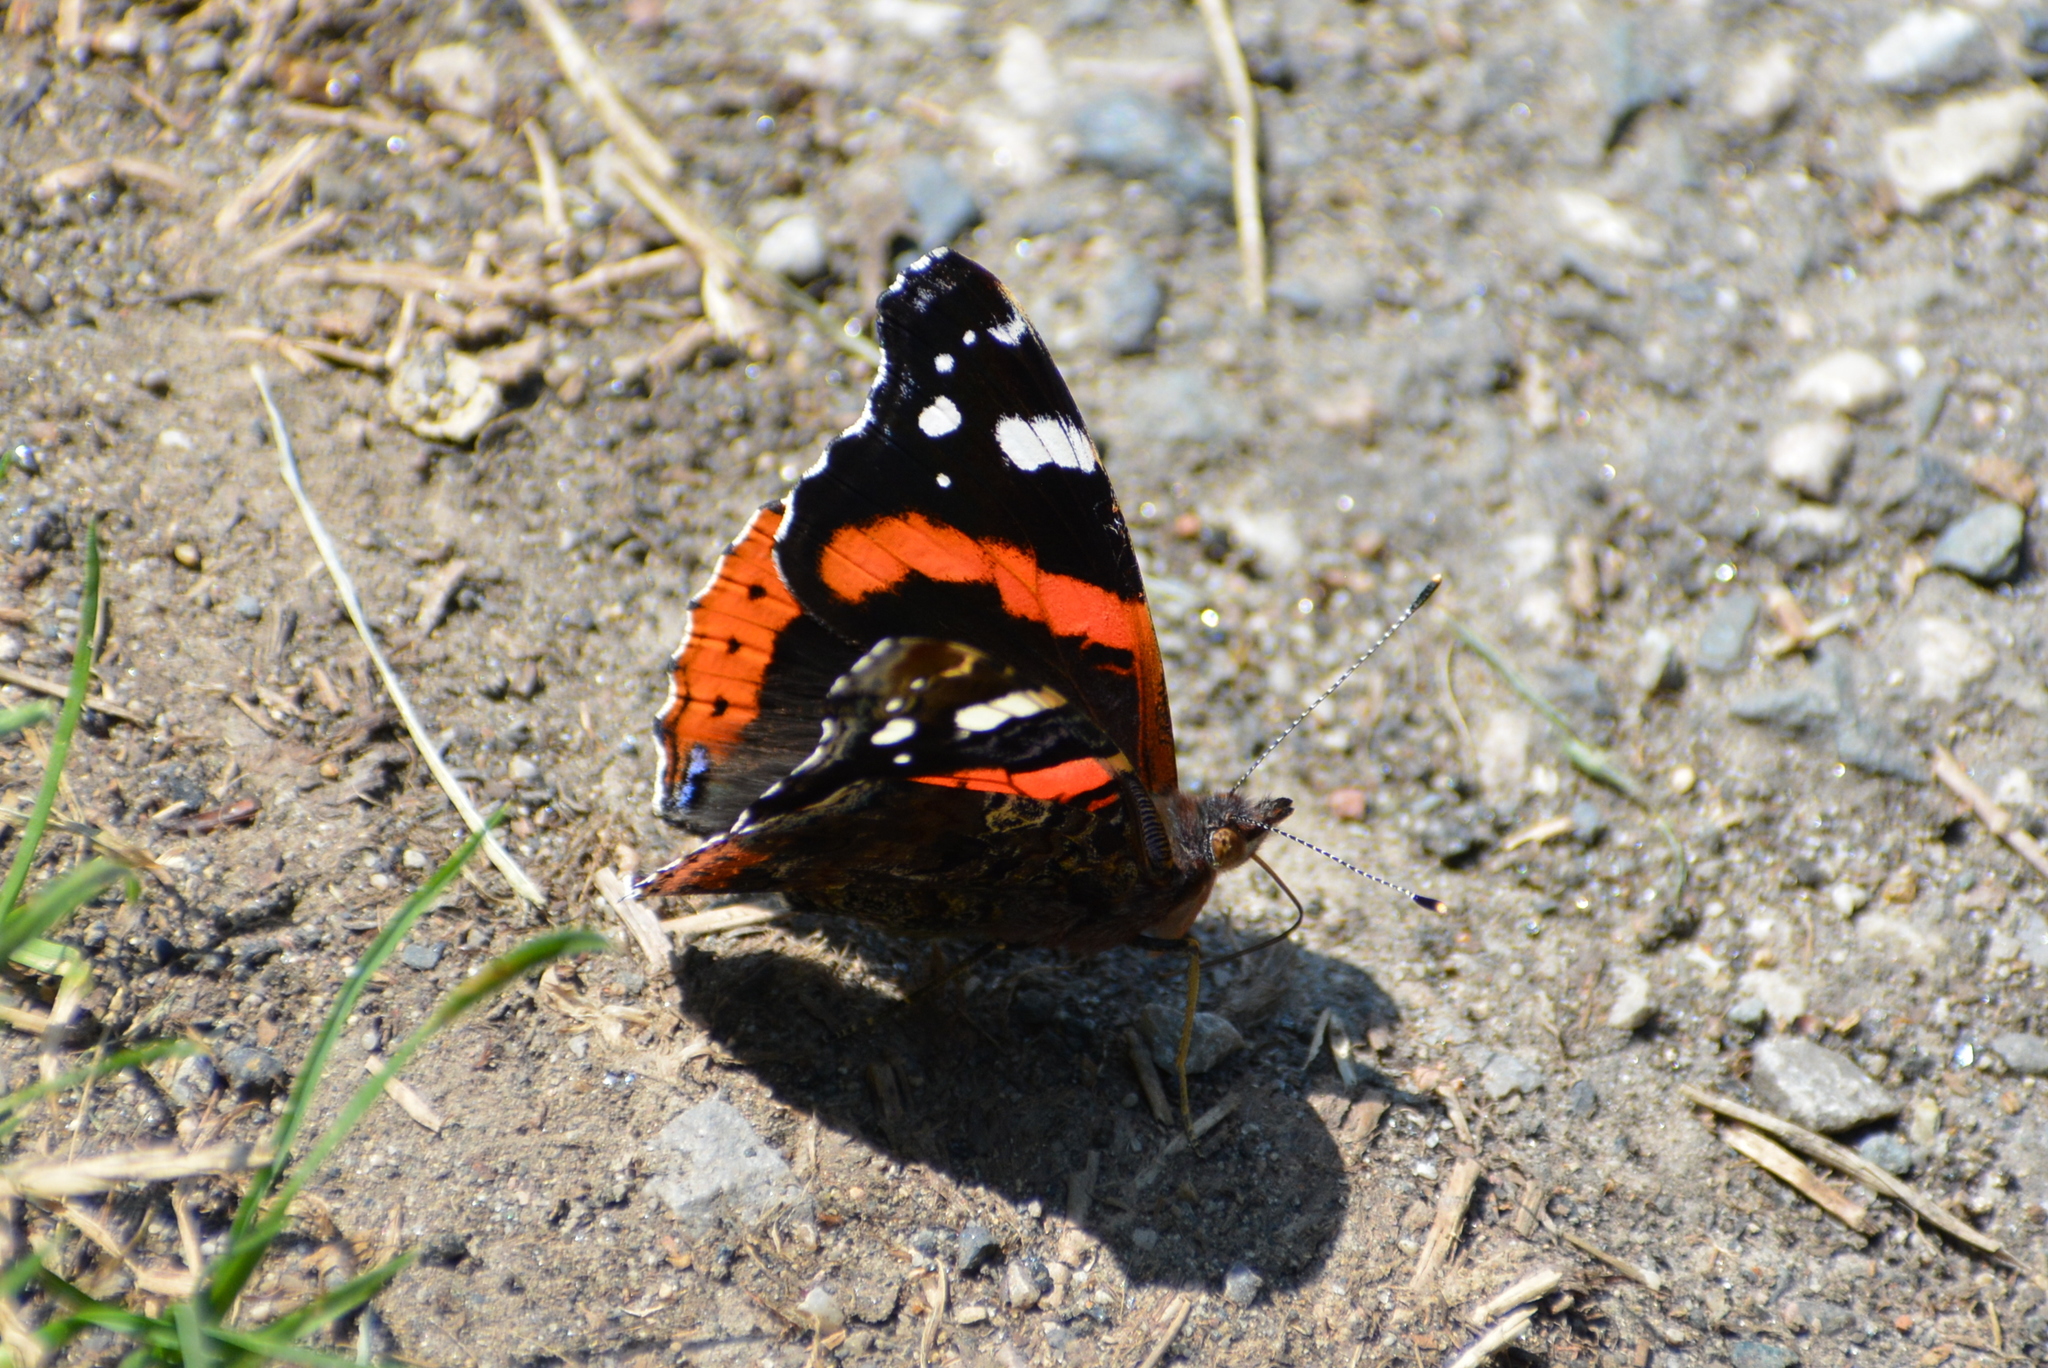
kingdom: Animalia
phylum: Arthropoda
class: Insecta
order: Lepidoptera
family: Nymphalidae
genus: Vanessa
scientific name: Vanessa atalanta
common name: Red admiral
